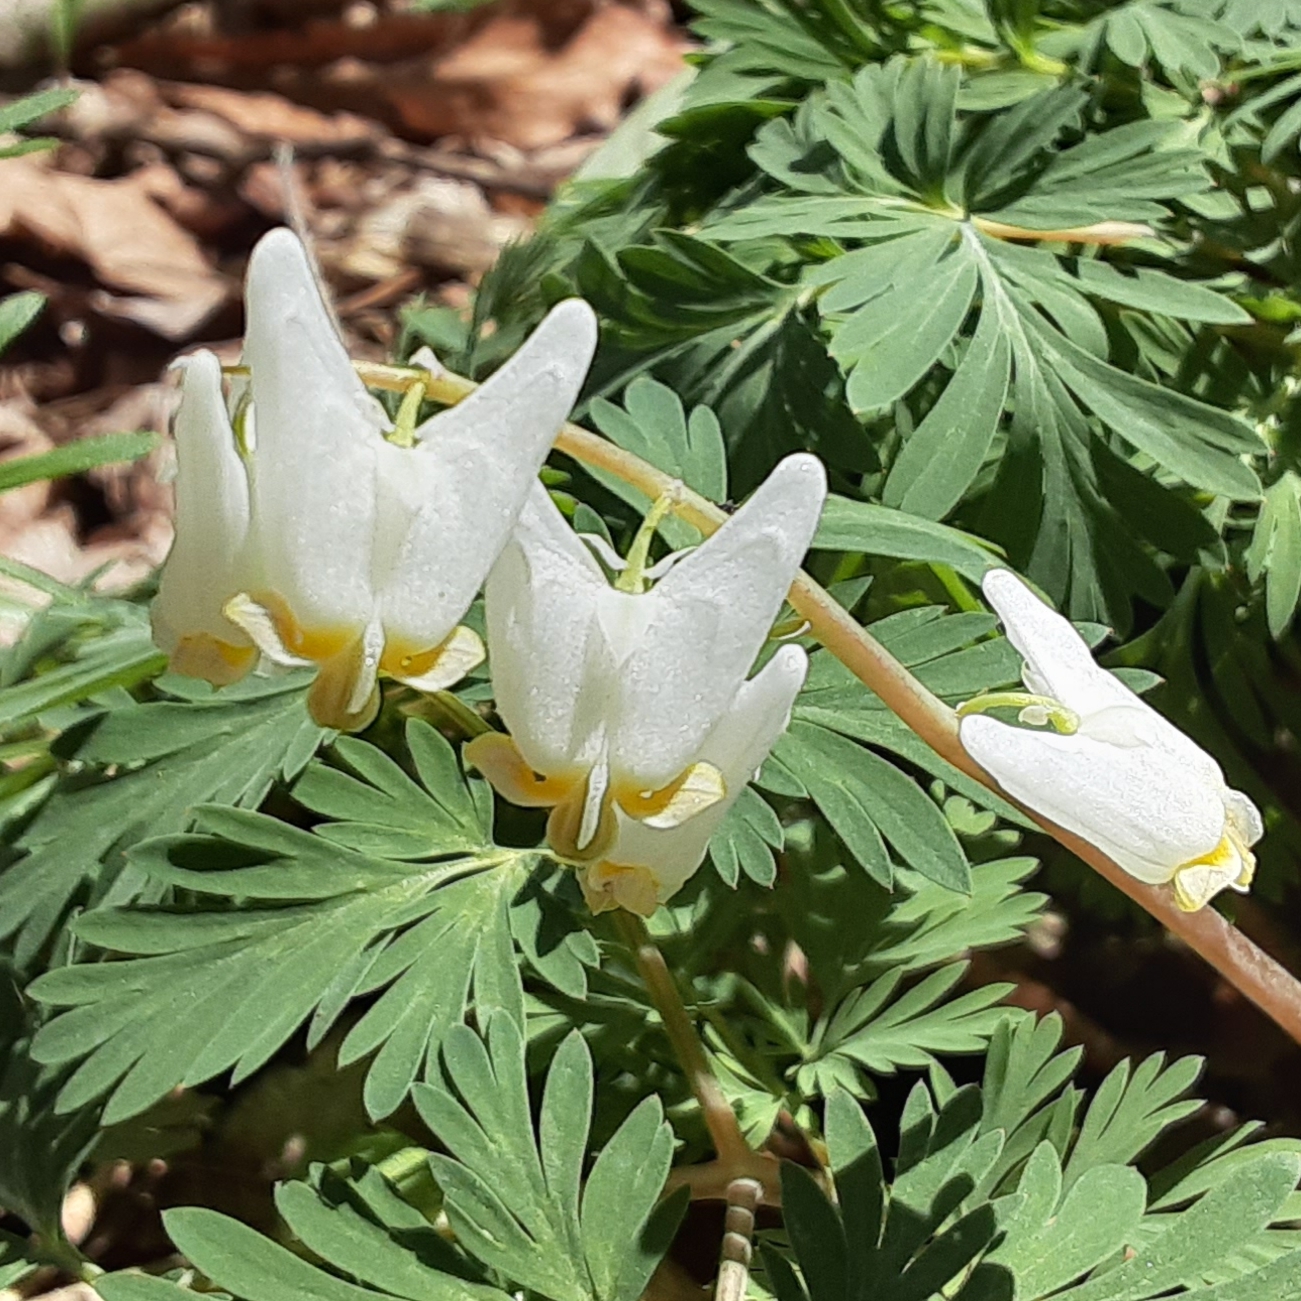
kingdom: Plantae
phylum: Tracheophyta
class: Magnoliopsida
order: Ranunculales
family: Papaveraceae
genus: Dicentra
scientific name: Dicentra cucullaria
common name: Dutchman's breeches
